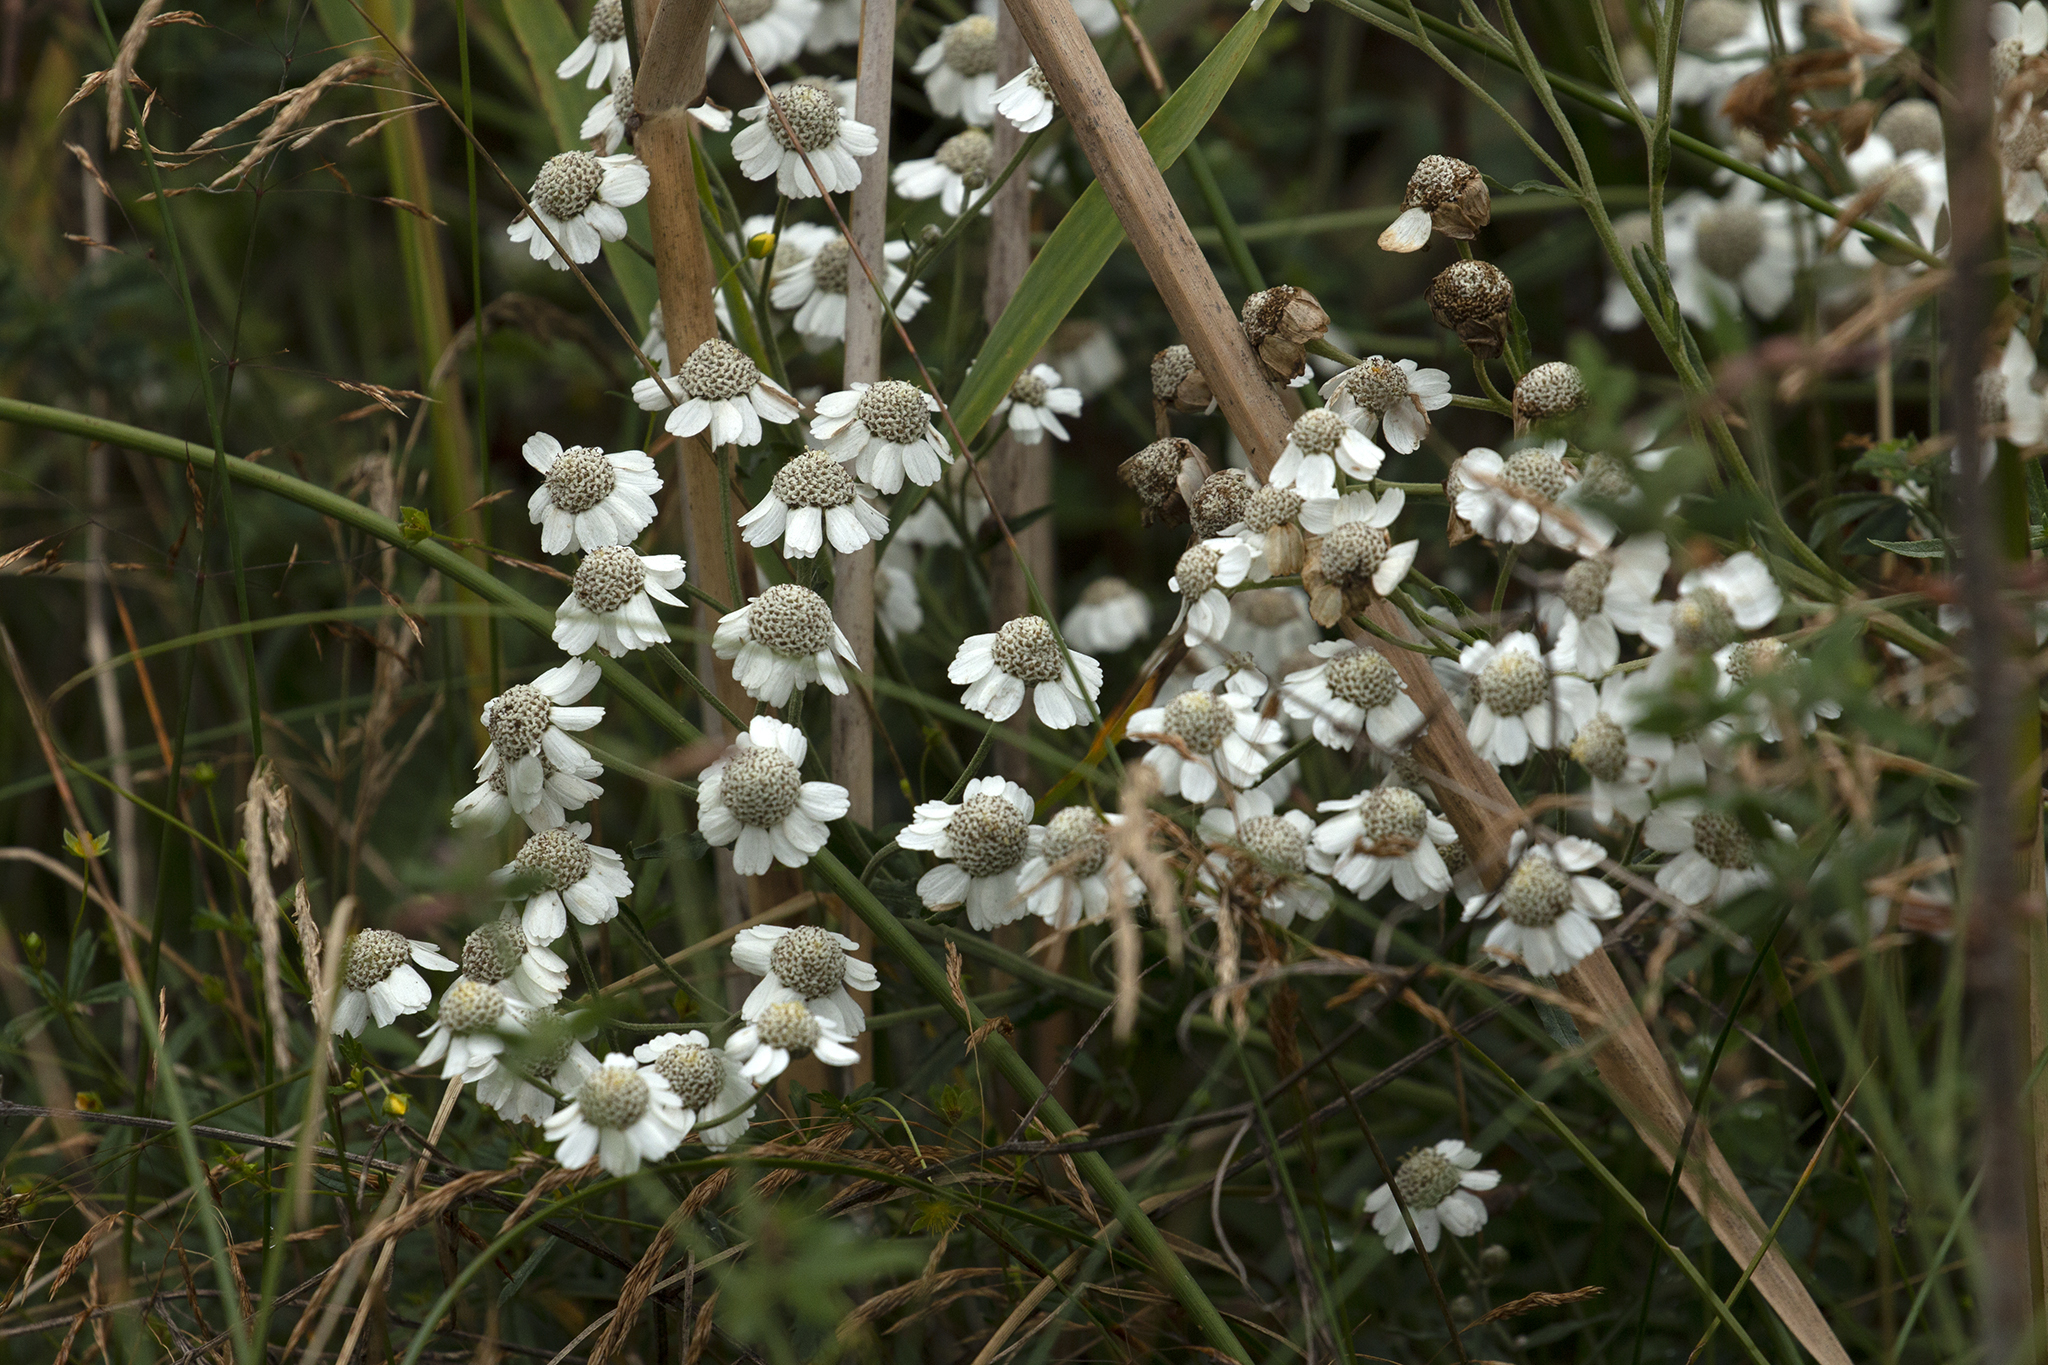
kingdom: Plantae
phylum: Tracheophyta
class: Magnoliopsida
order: Asterales
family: Asteraceae
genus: Achillea
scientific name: Achillea ptarmica
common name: Sneezeweed
